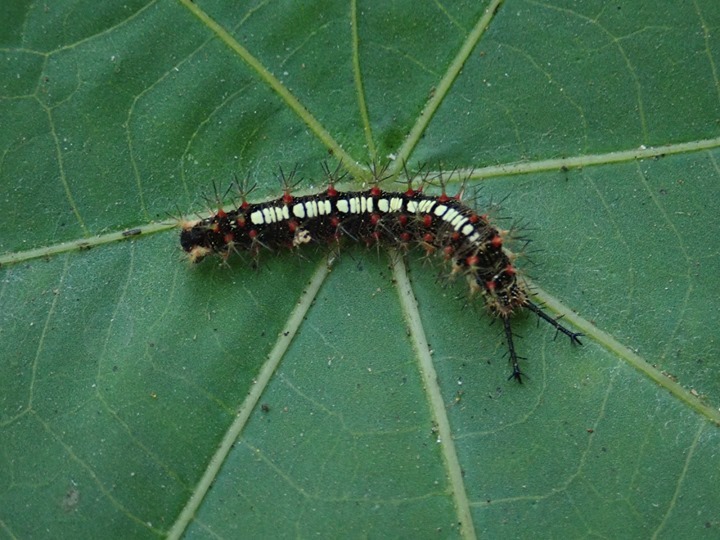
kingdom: Animalia
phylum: Arthropoda
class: Insecta
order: Lepidoptera
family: Nymphalidae
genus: Ariadne
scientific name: Ariadne ariadne
